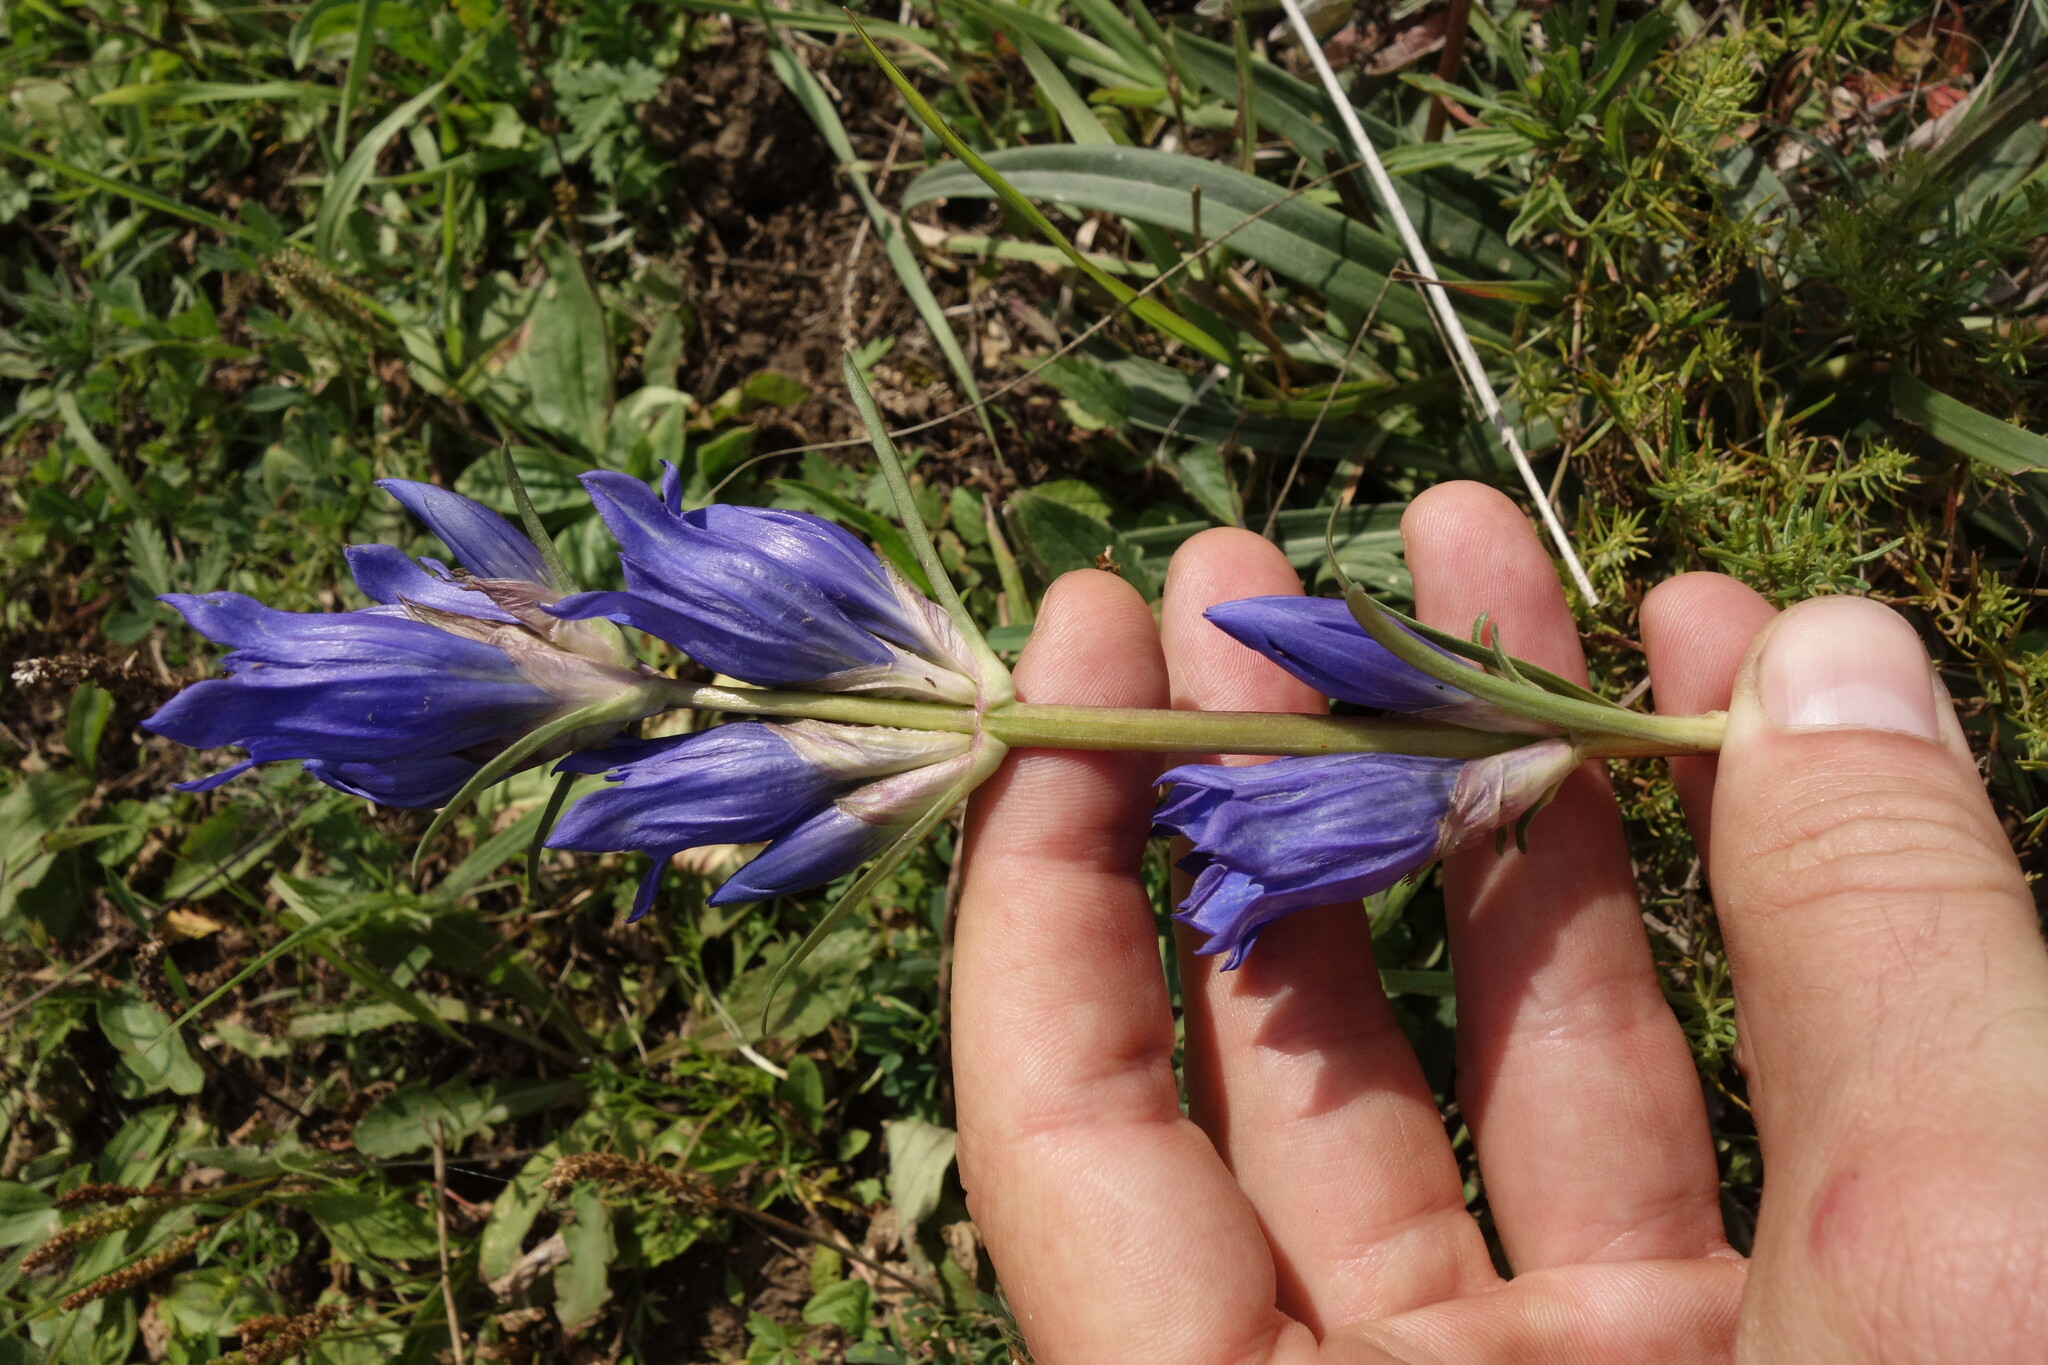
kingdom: Plantae
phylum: Tracheophyta
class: Magnoliopsida
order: Gentianales
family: Gentianaceae
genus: Gentiana
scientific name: Gentiana decumbens
